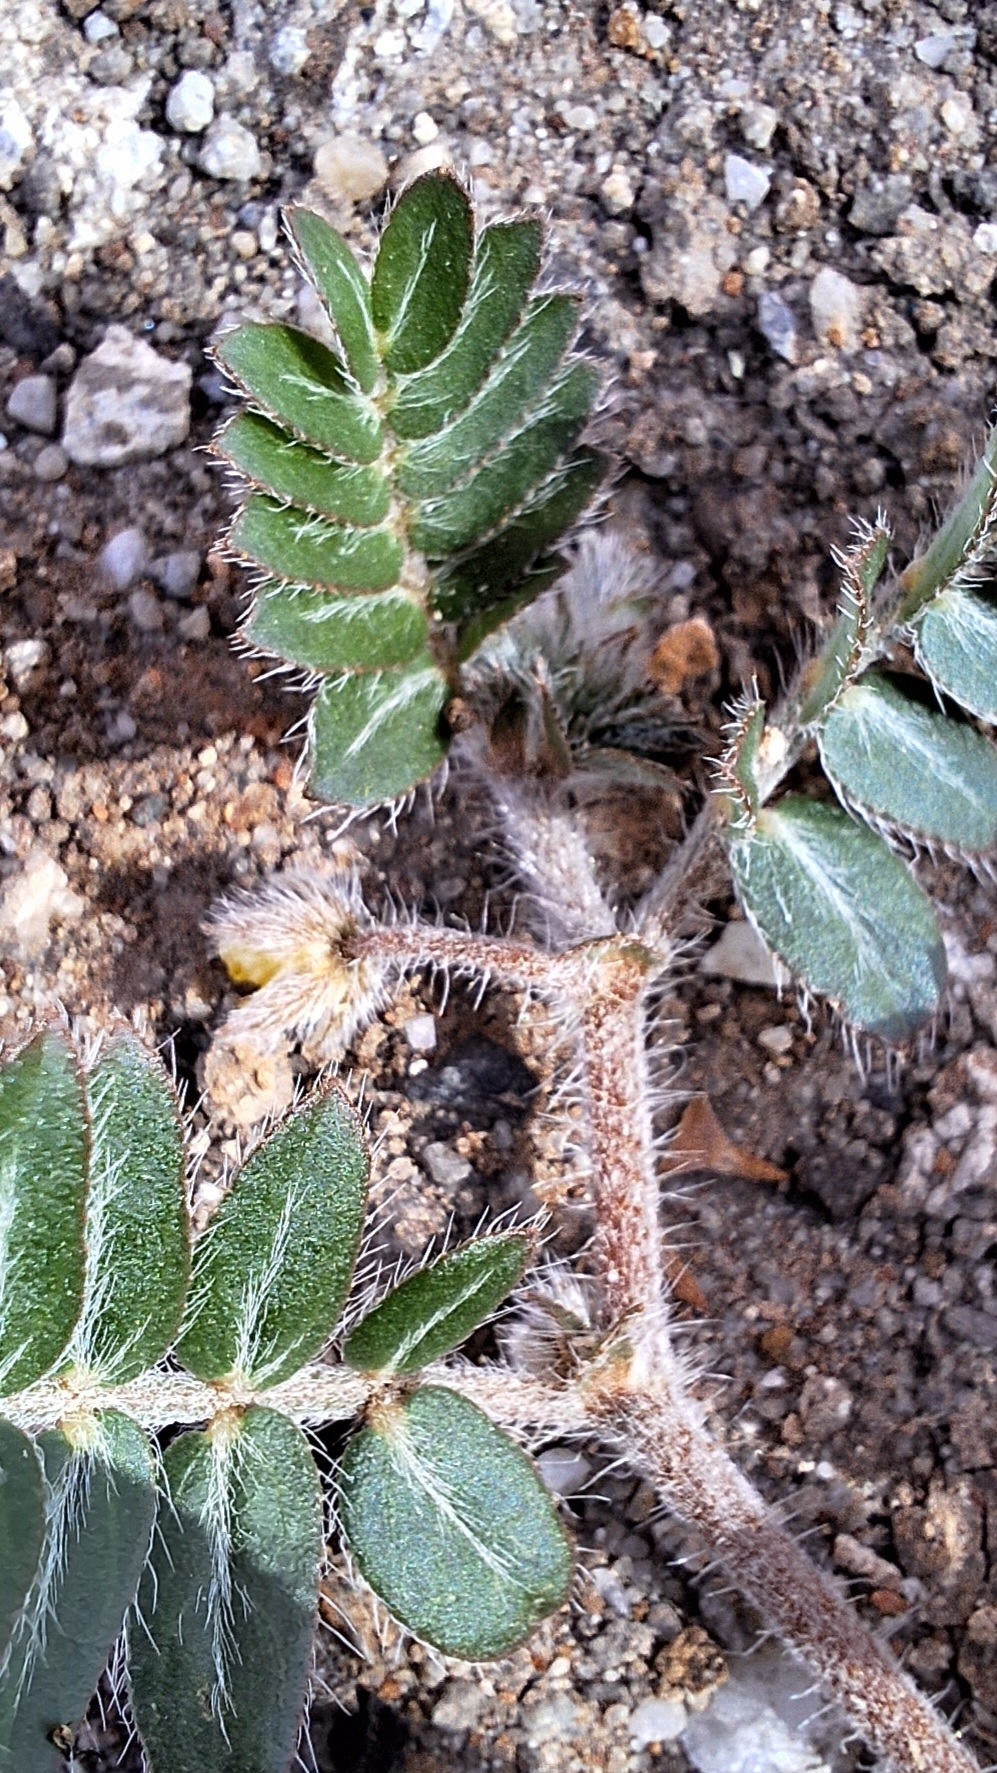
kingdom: Plantae
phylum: Tracheophyta
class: Magnoliopsida
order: Zygophyllales
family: Zygophyllaceae
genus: Tribulus
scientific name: Tribulus terrestris
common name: Puncturevine
